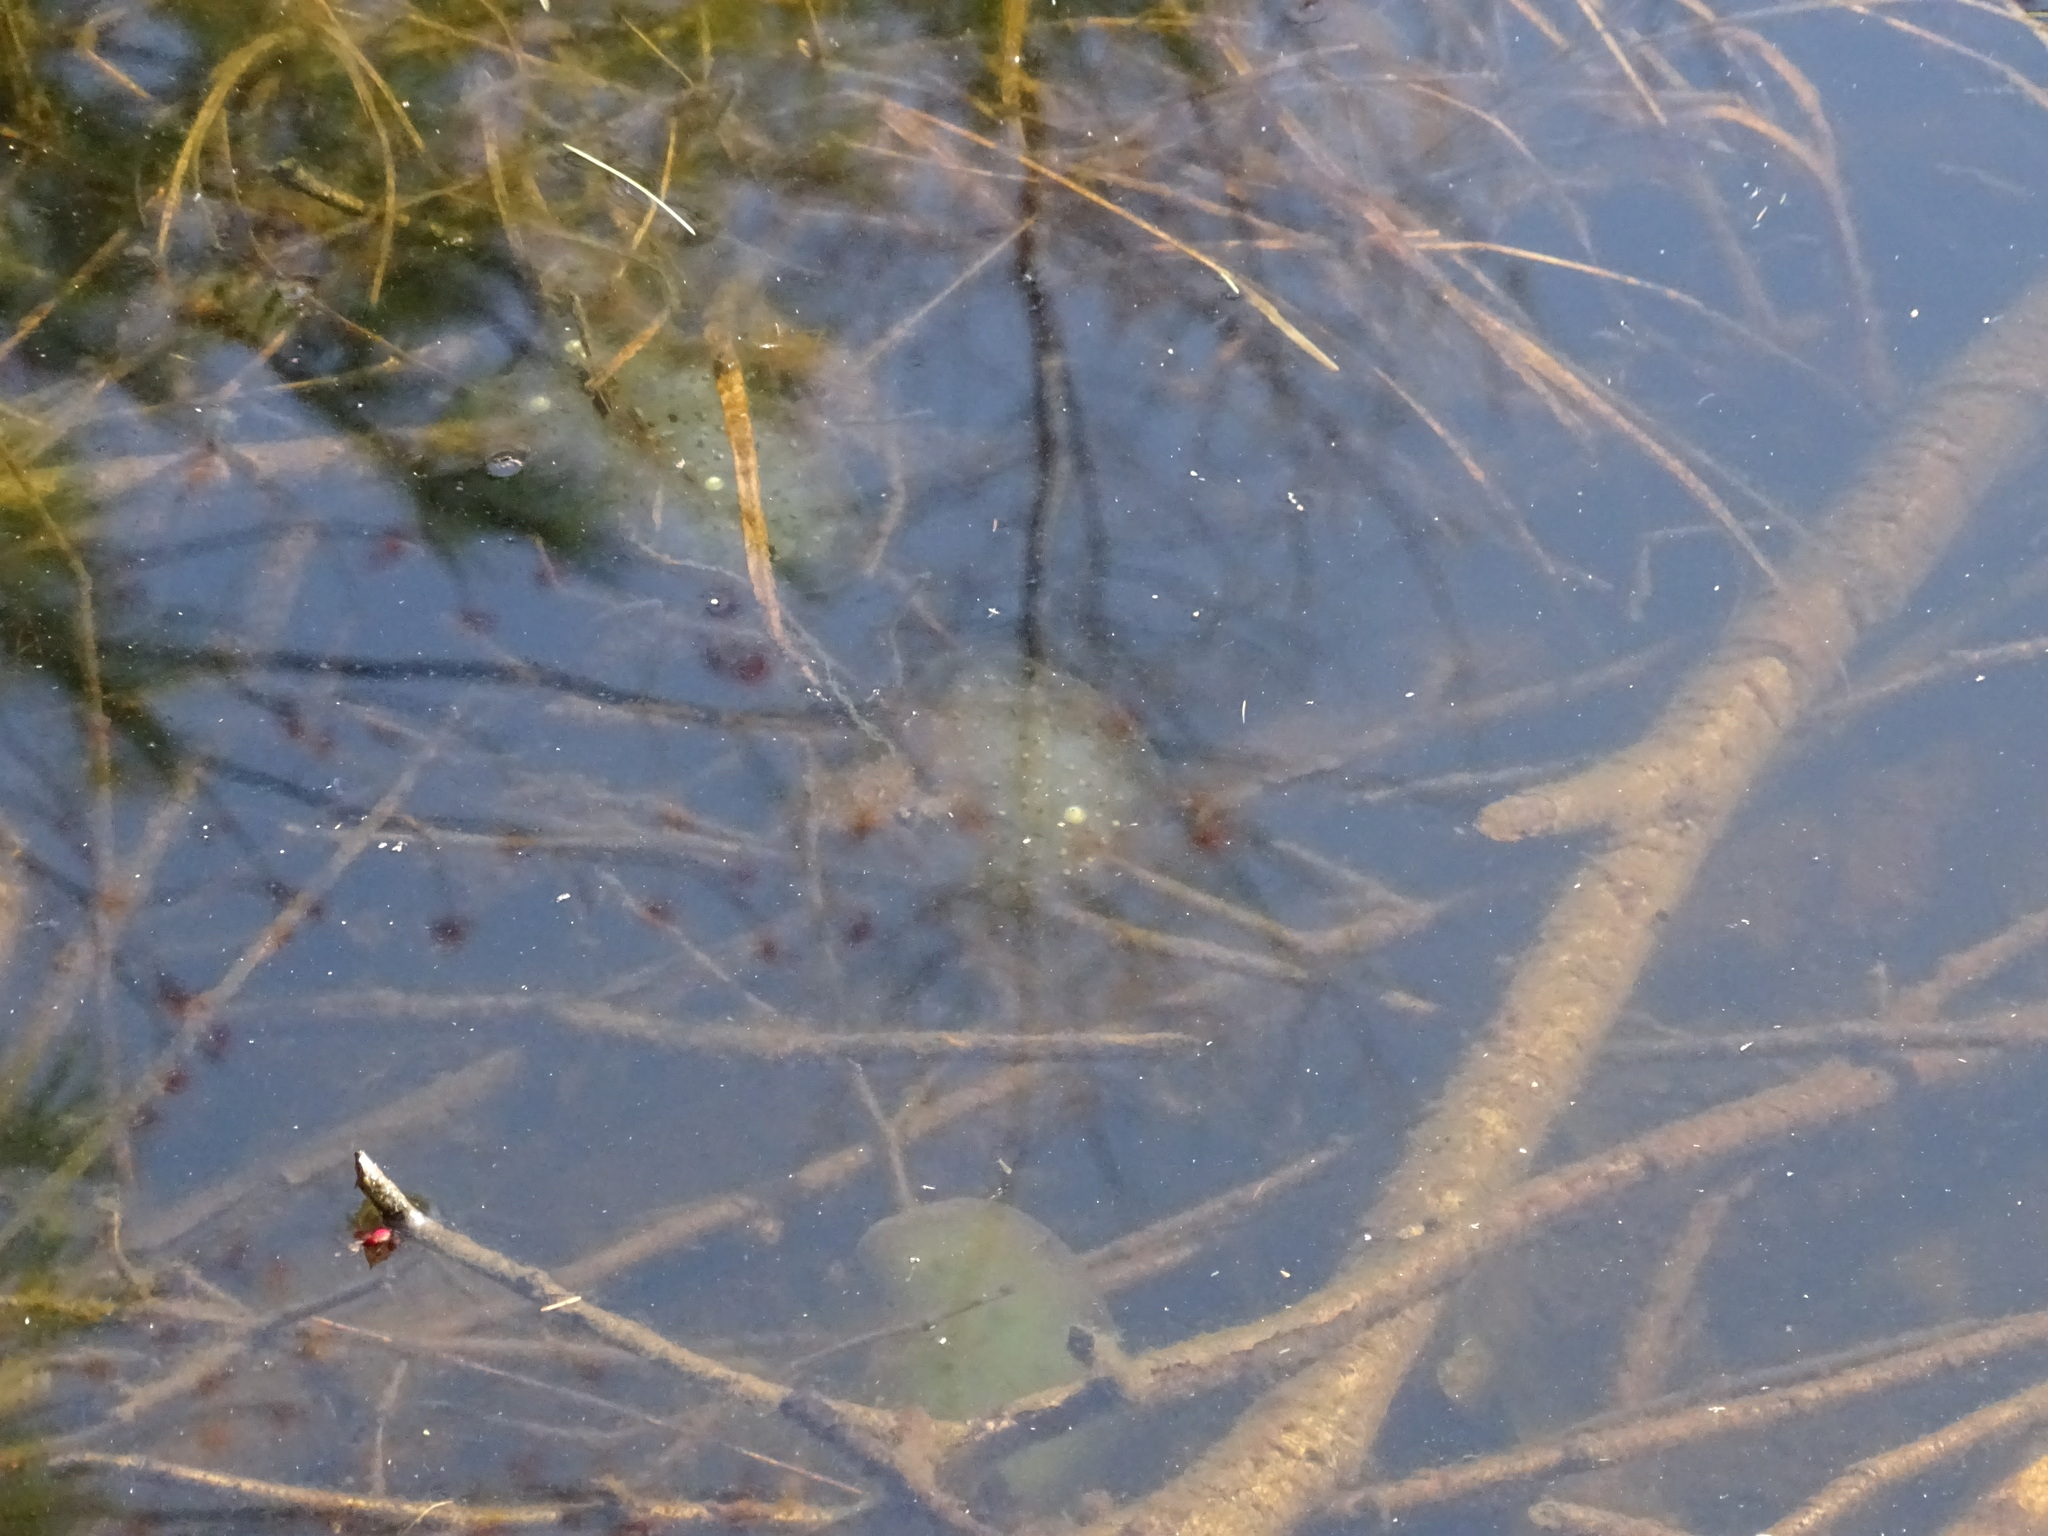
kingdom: Animalia
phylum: Chordata
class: Amphibia
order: Caudata
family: Ambystomatidae
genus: Ambystoma
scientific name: Ambystoma maculatum
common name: Spotted salamander
